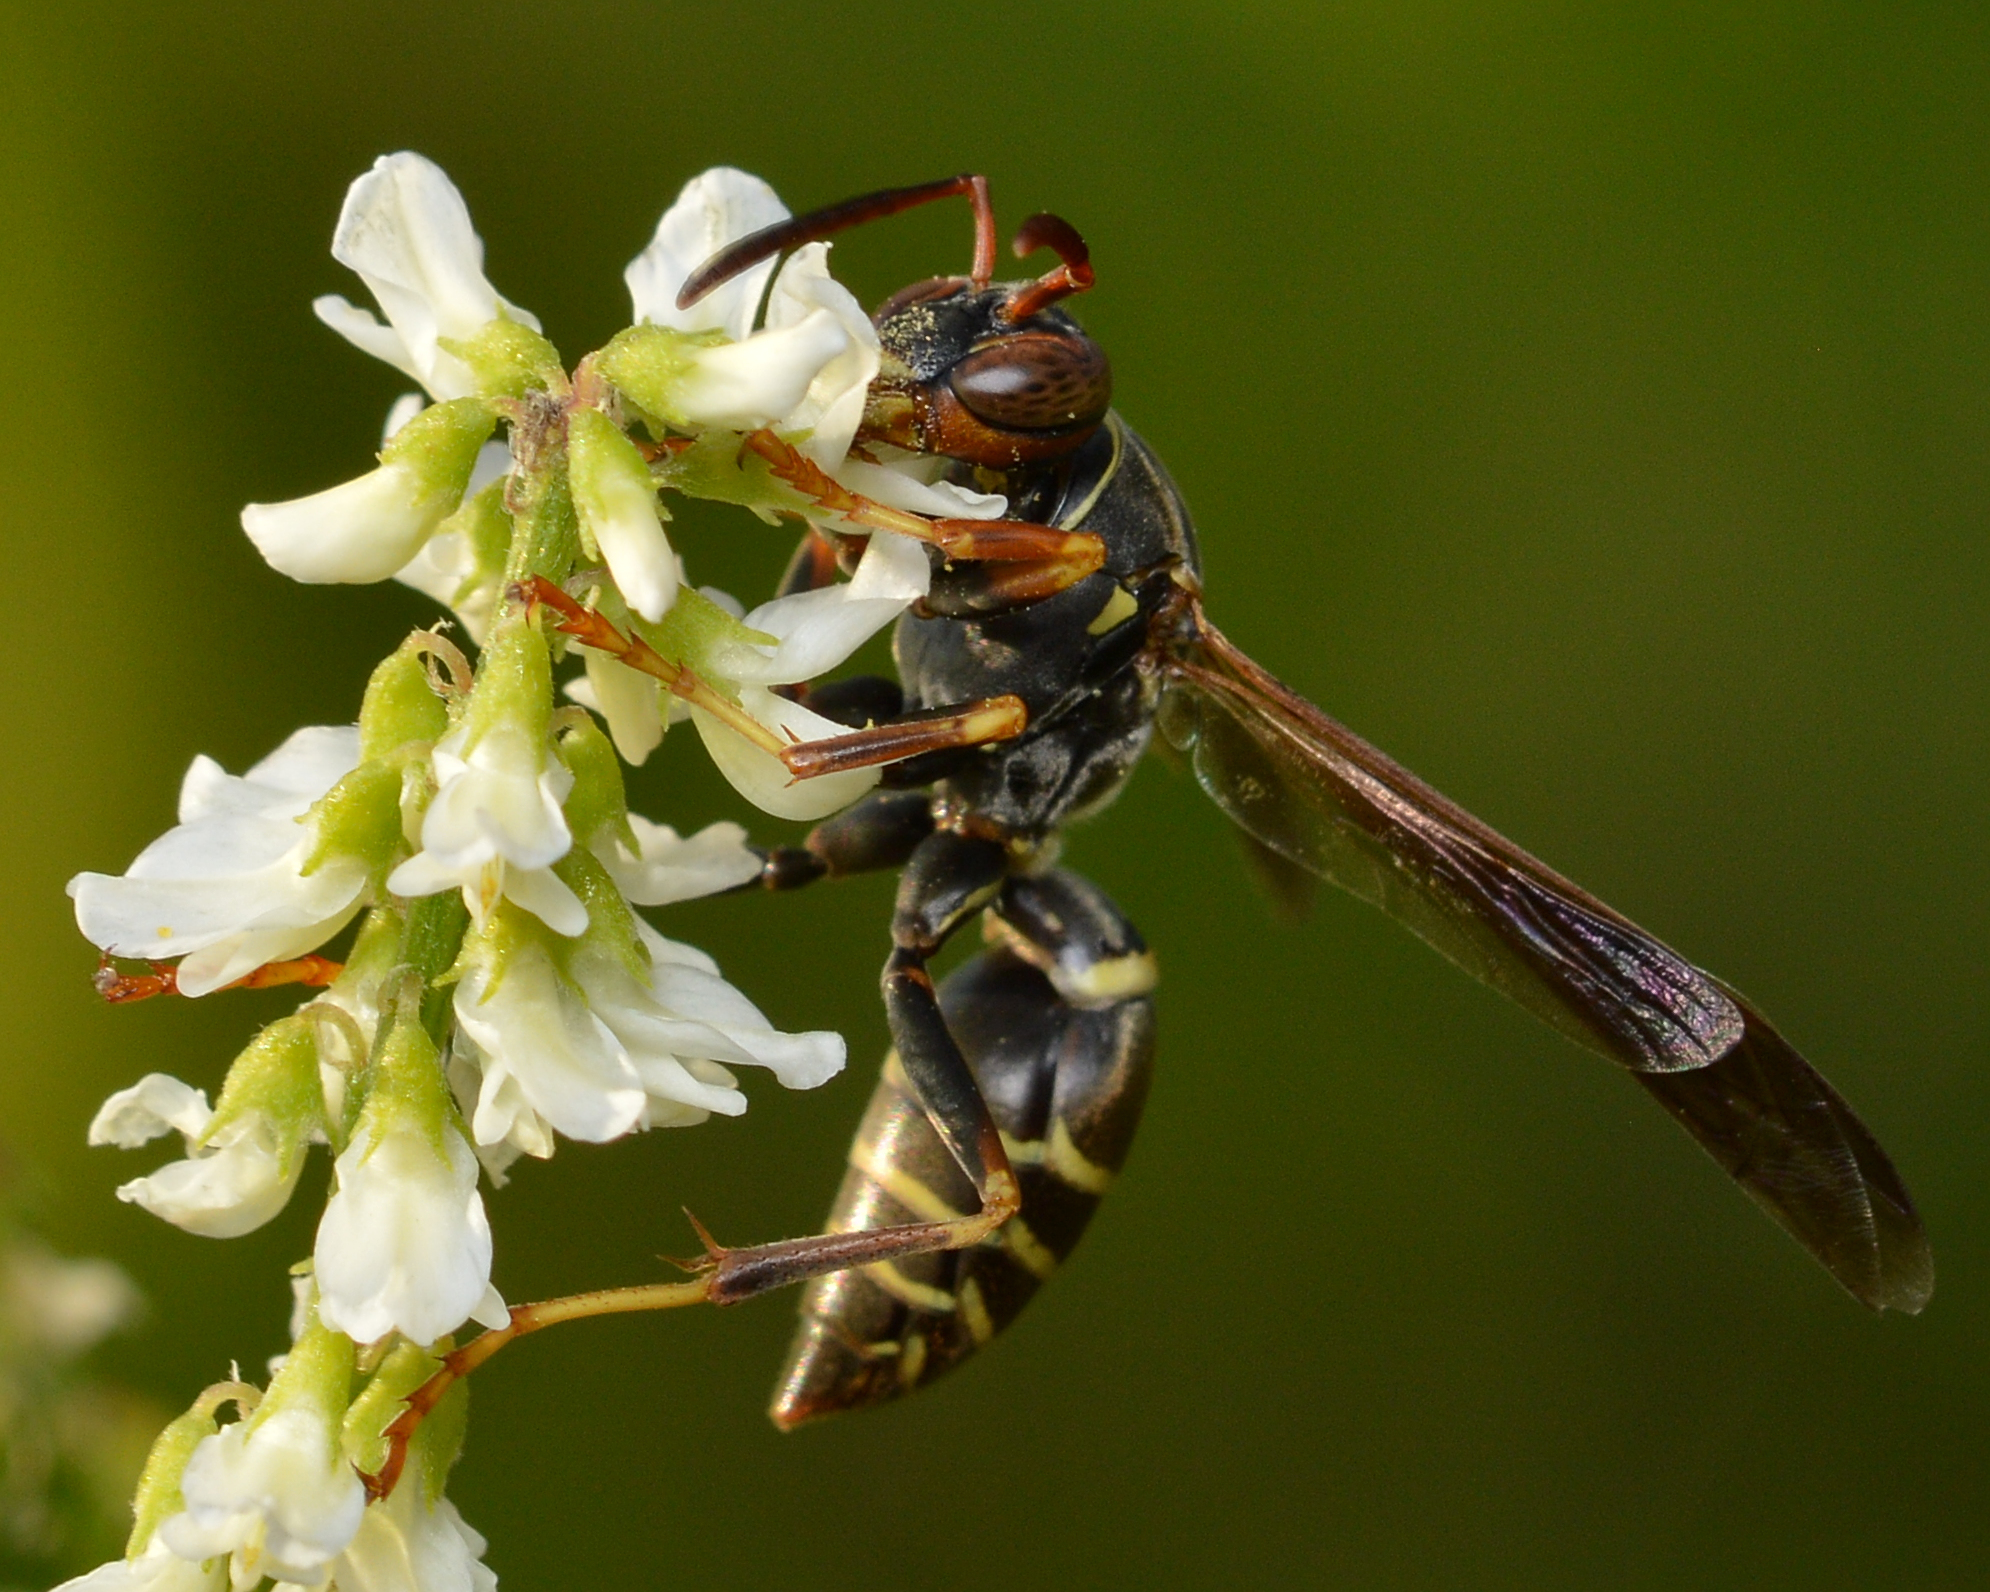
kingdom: Animalia
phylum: Arthropoda
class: Insecta
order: Hymenoptera
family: Eumenidae
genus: Polistes
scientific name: Polistes fuscatus
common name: Dark paper wasp
